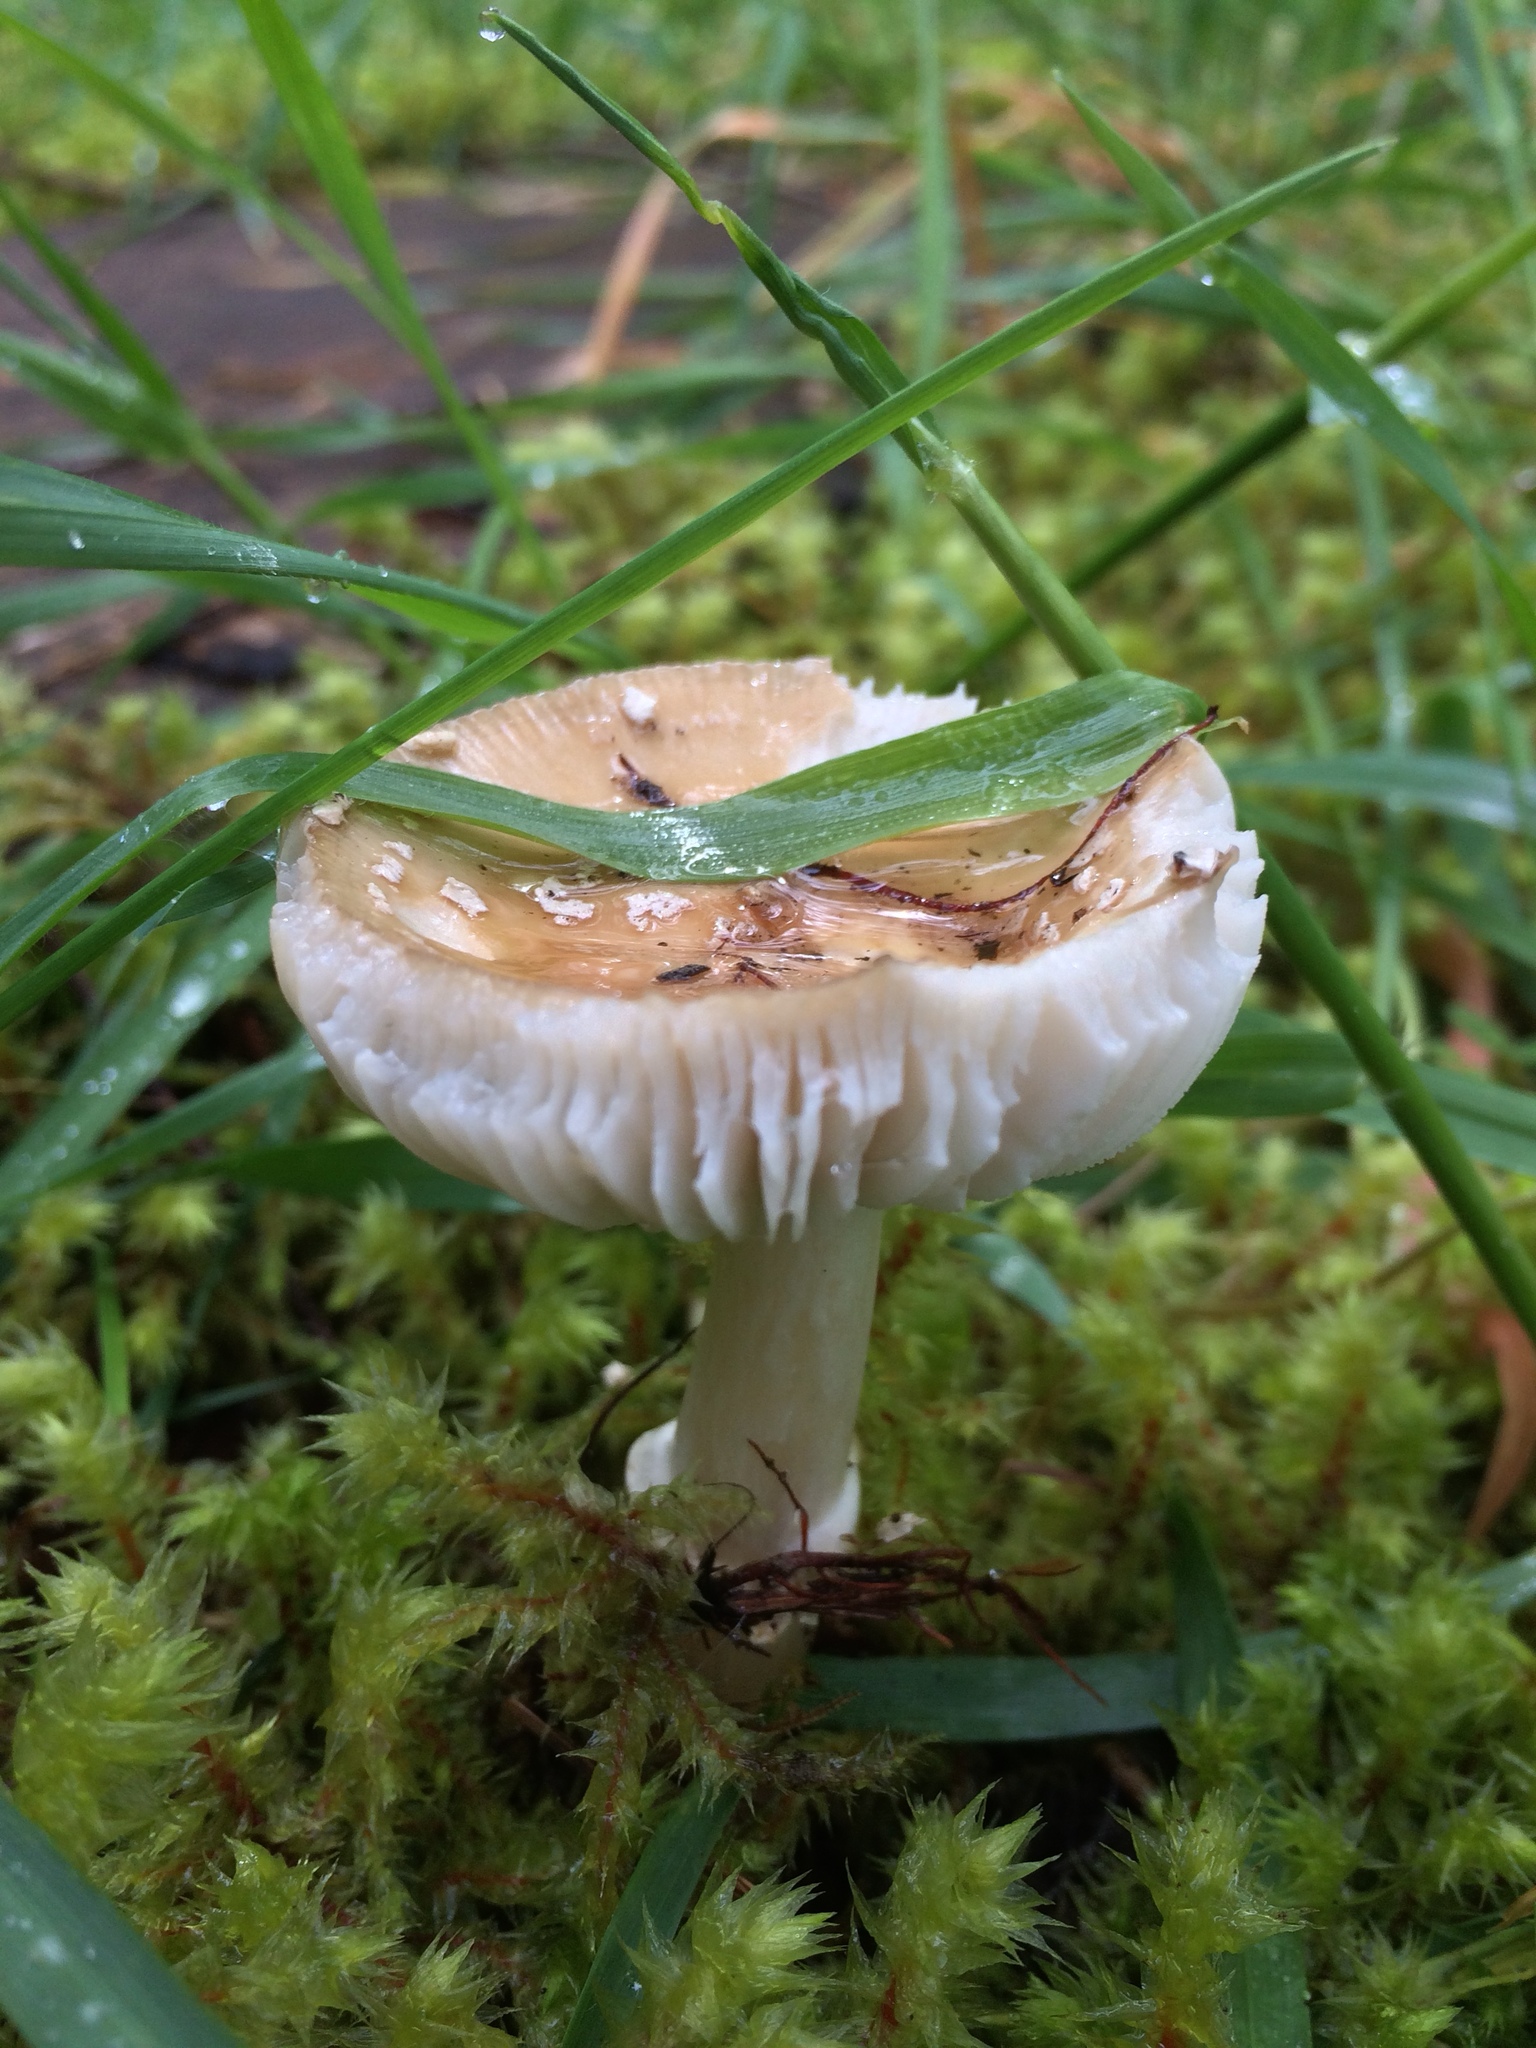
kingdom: Fungi
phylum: Basidiomycota
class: Agaricomycetes
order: Agaricales
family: Amanitaceae
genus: Amanita
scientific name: Amanita pantherina
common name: Panthercap
